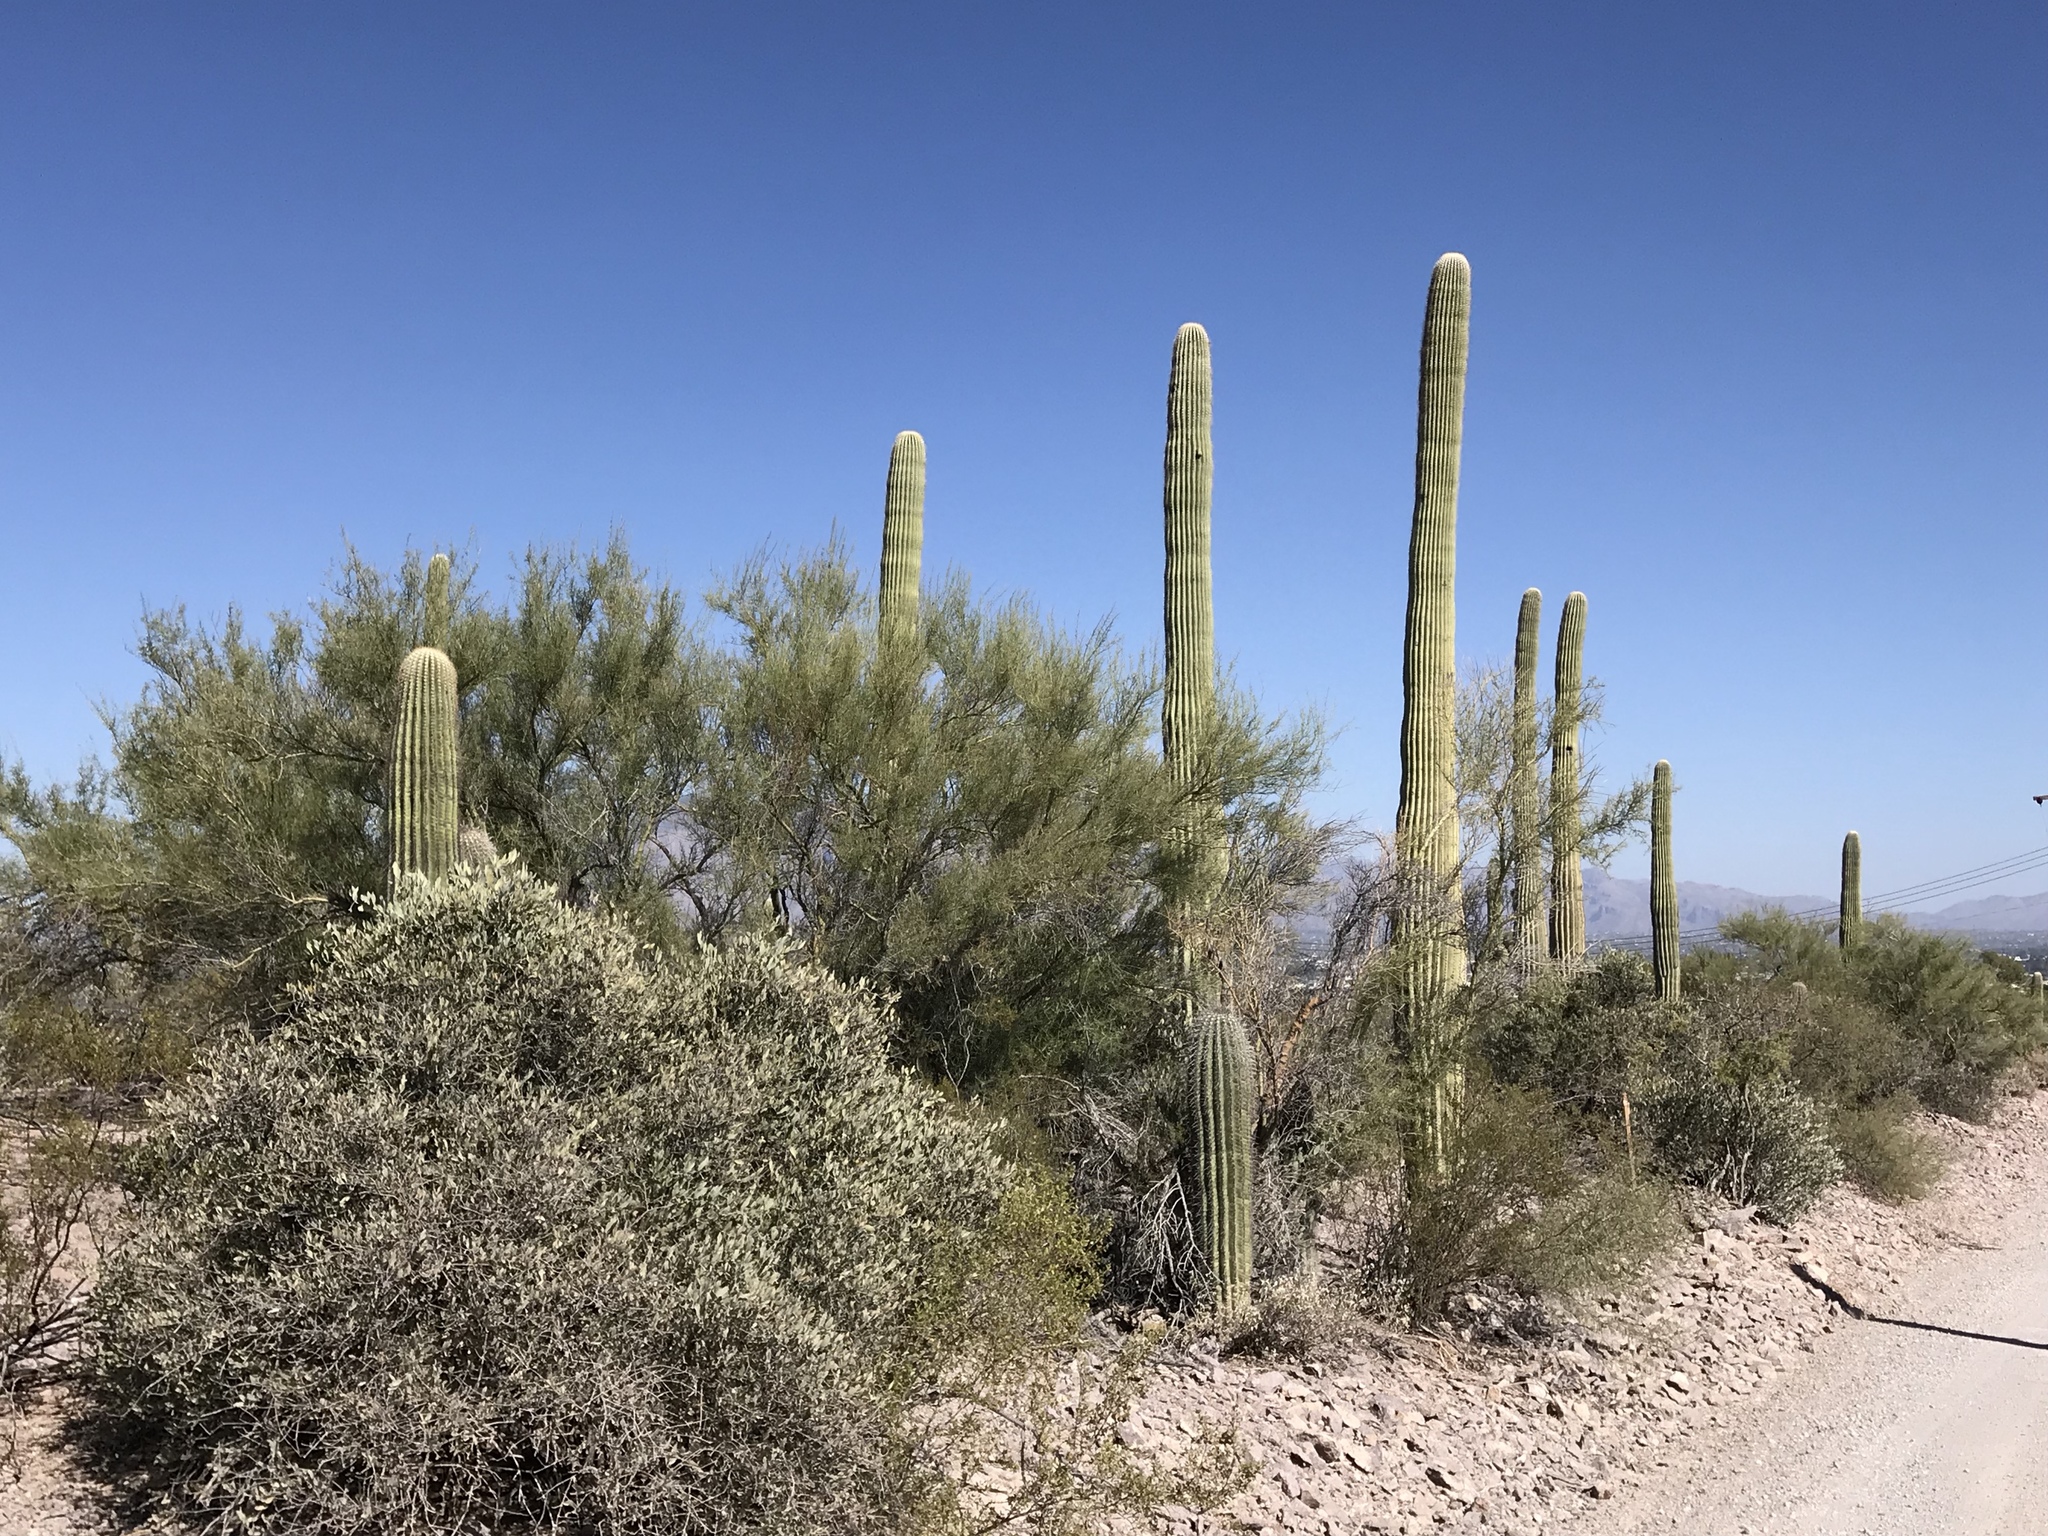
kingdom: Plantae
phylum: Tracheophyta
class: Magnoliopsida
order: Caryophyllales
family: Simmondsiaceae
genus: Simmondsia
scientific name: Simmondsia chinensis
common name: Jojoba
